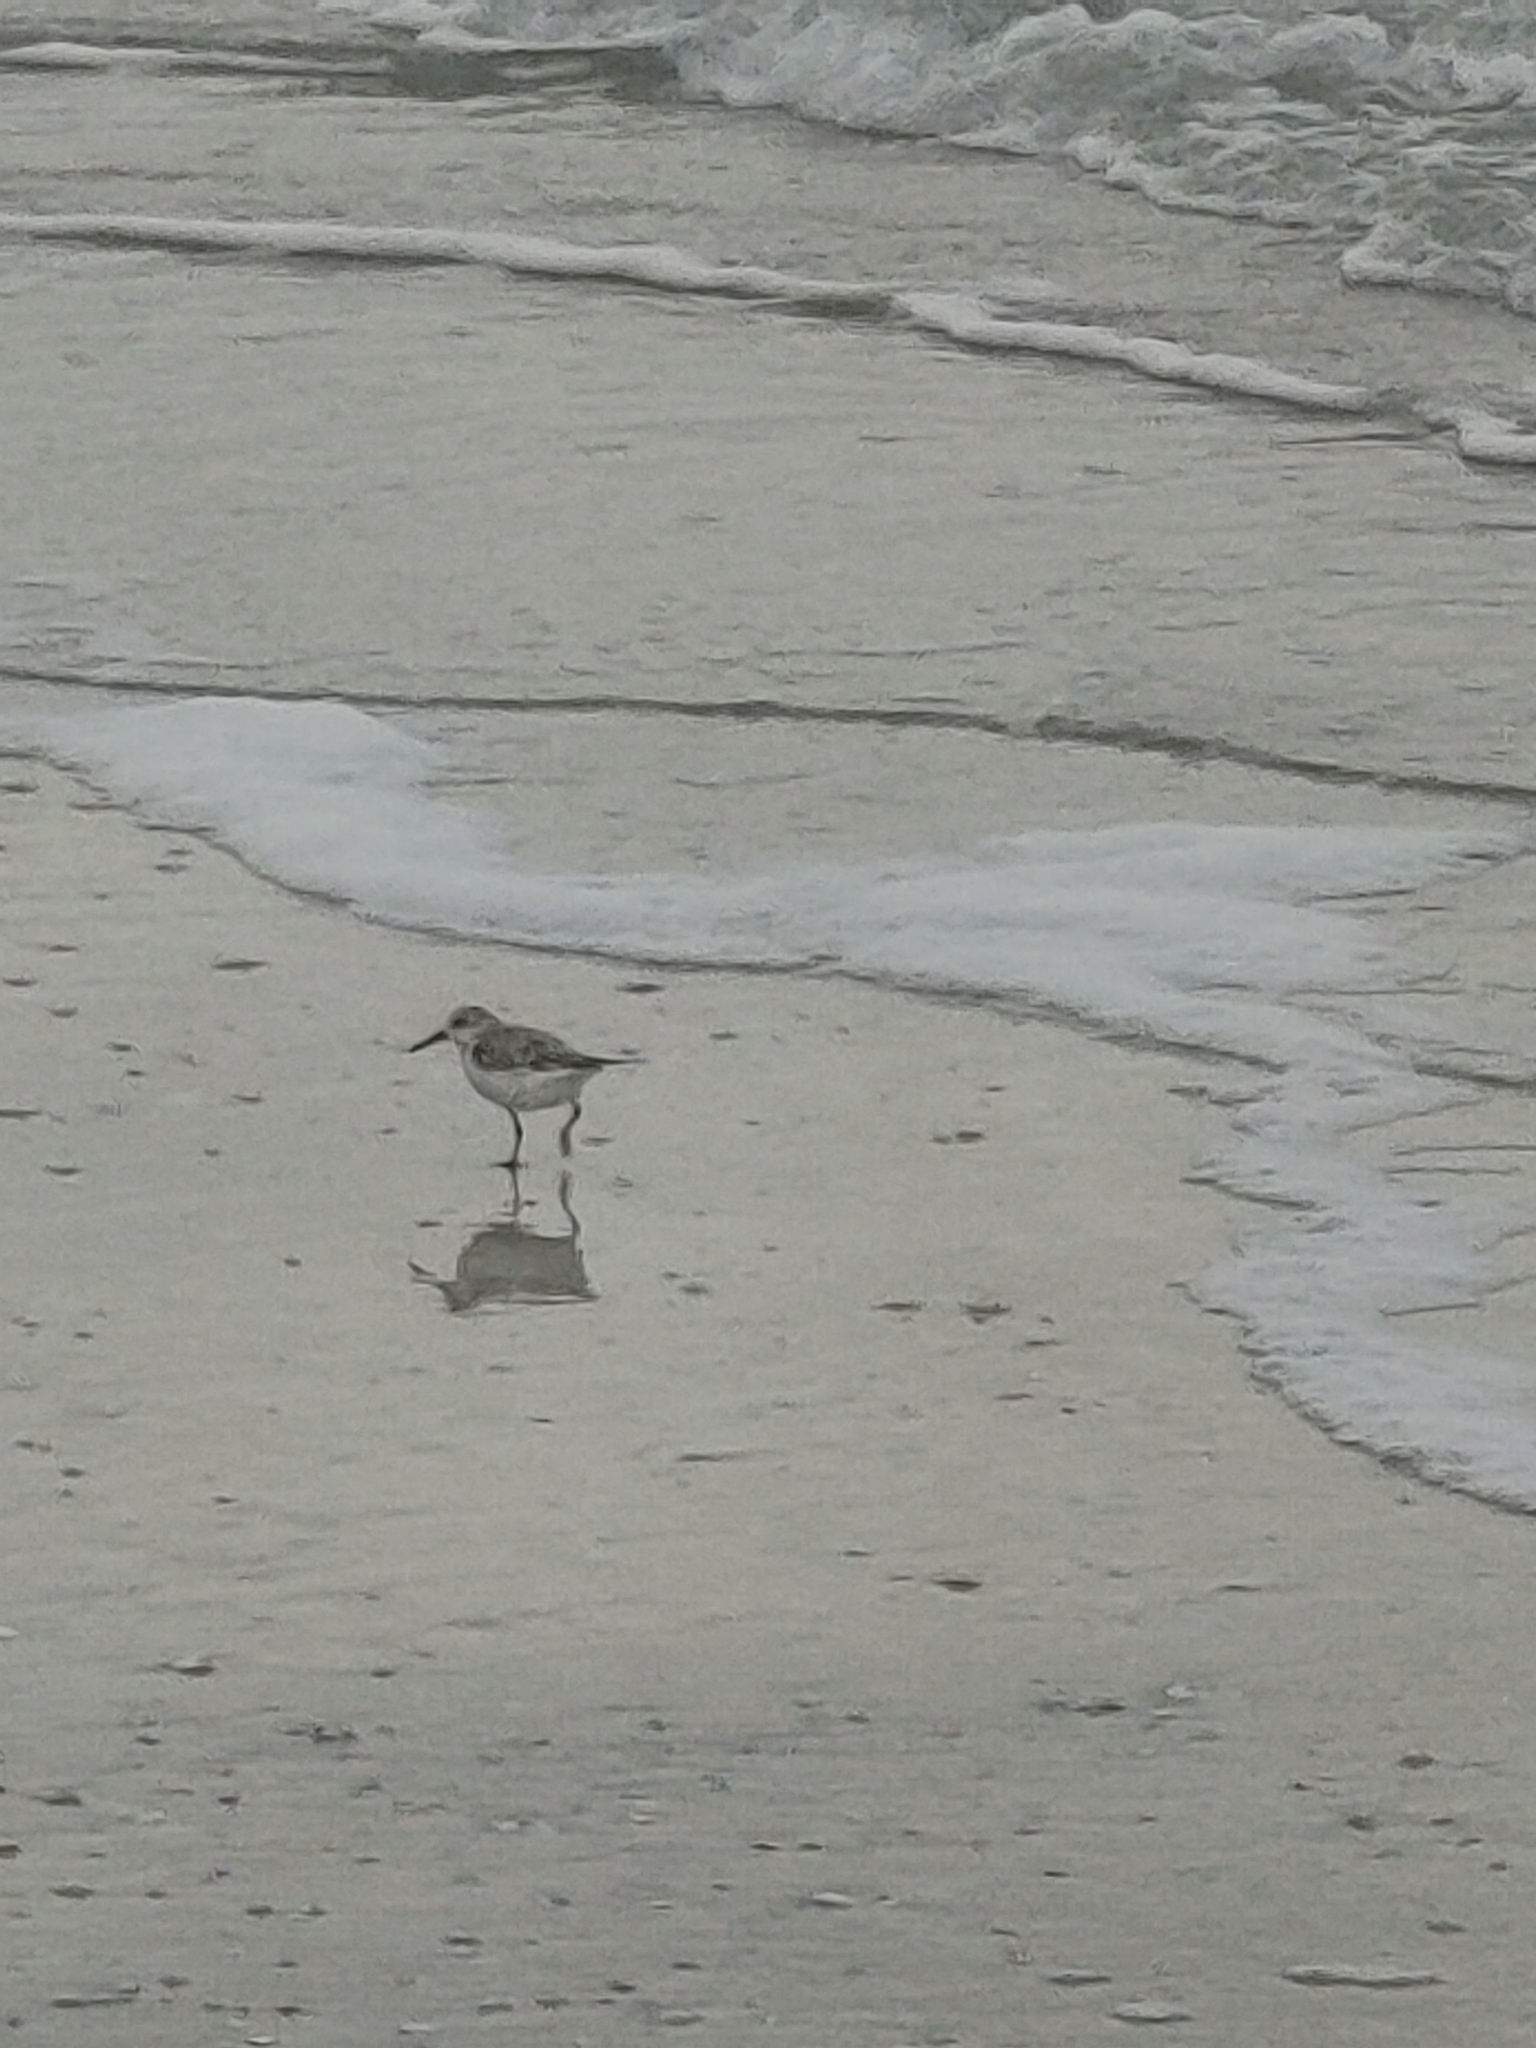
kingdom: Animalia
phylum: Chordata
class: Aves
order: Charadriiformes
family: Scolopacidae
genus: Calidris
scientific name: Calidris alba
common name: Sanderling
